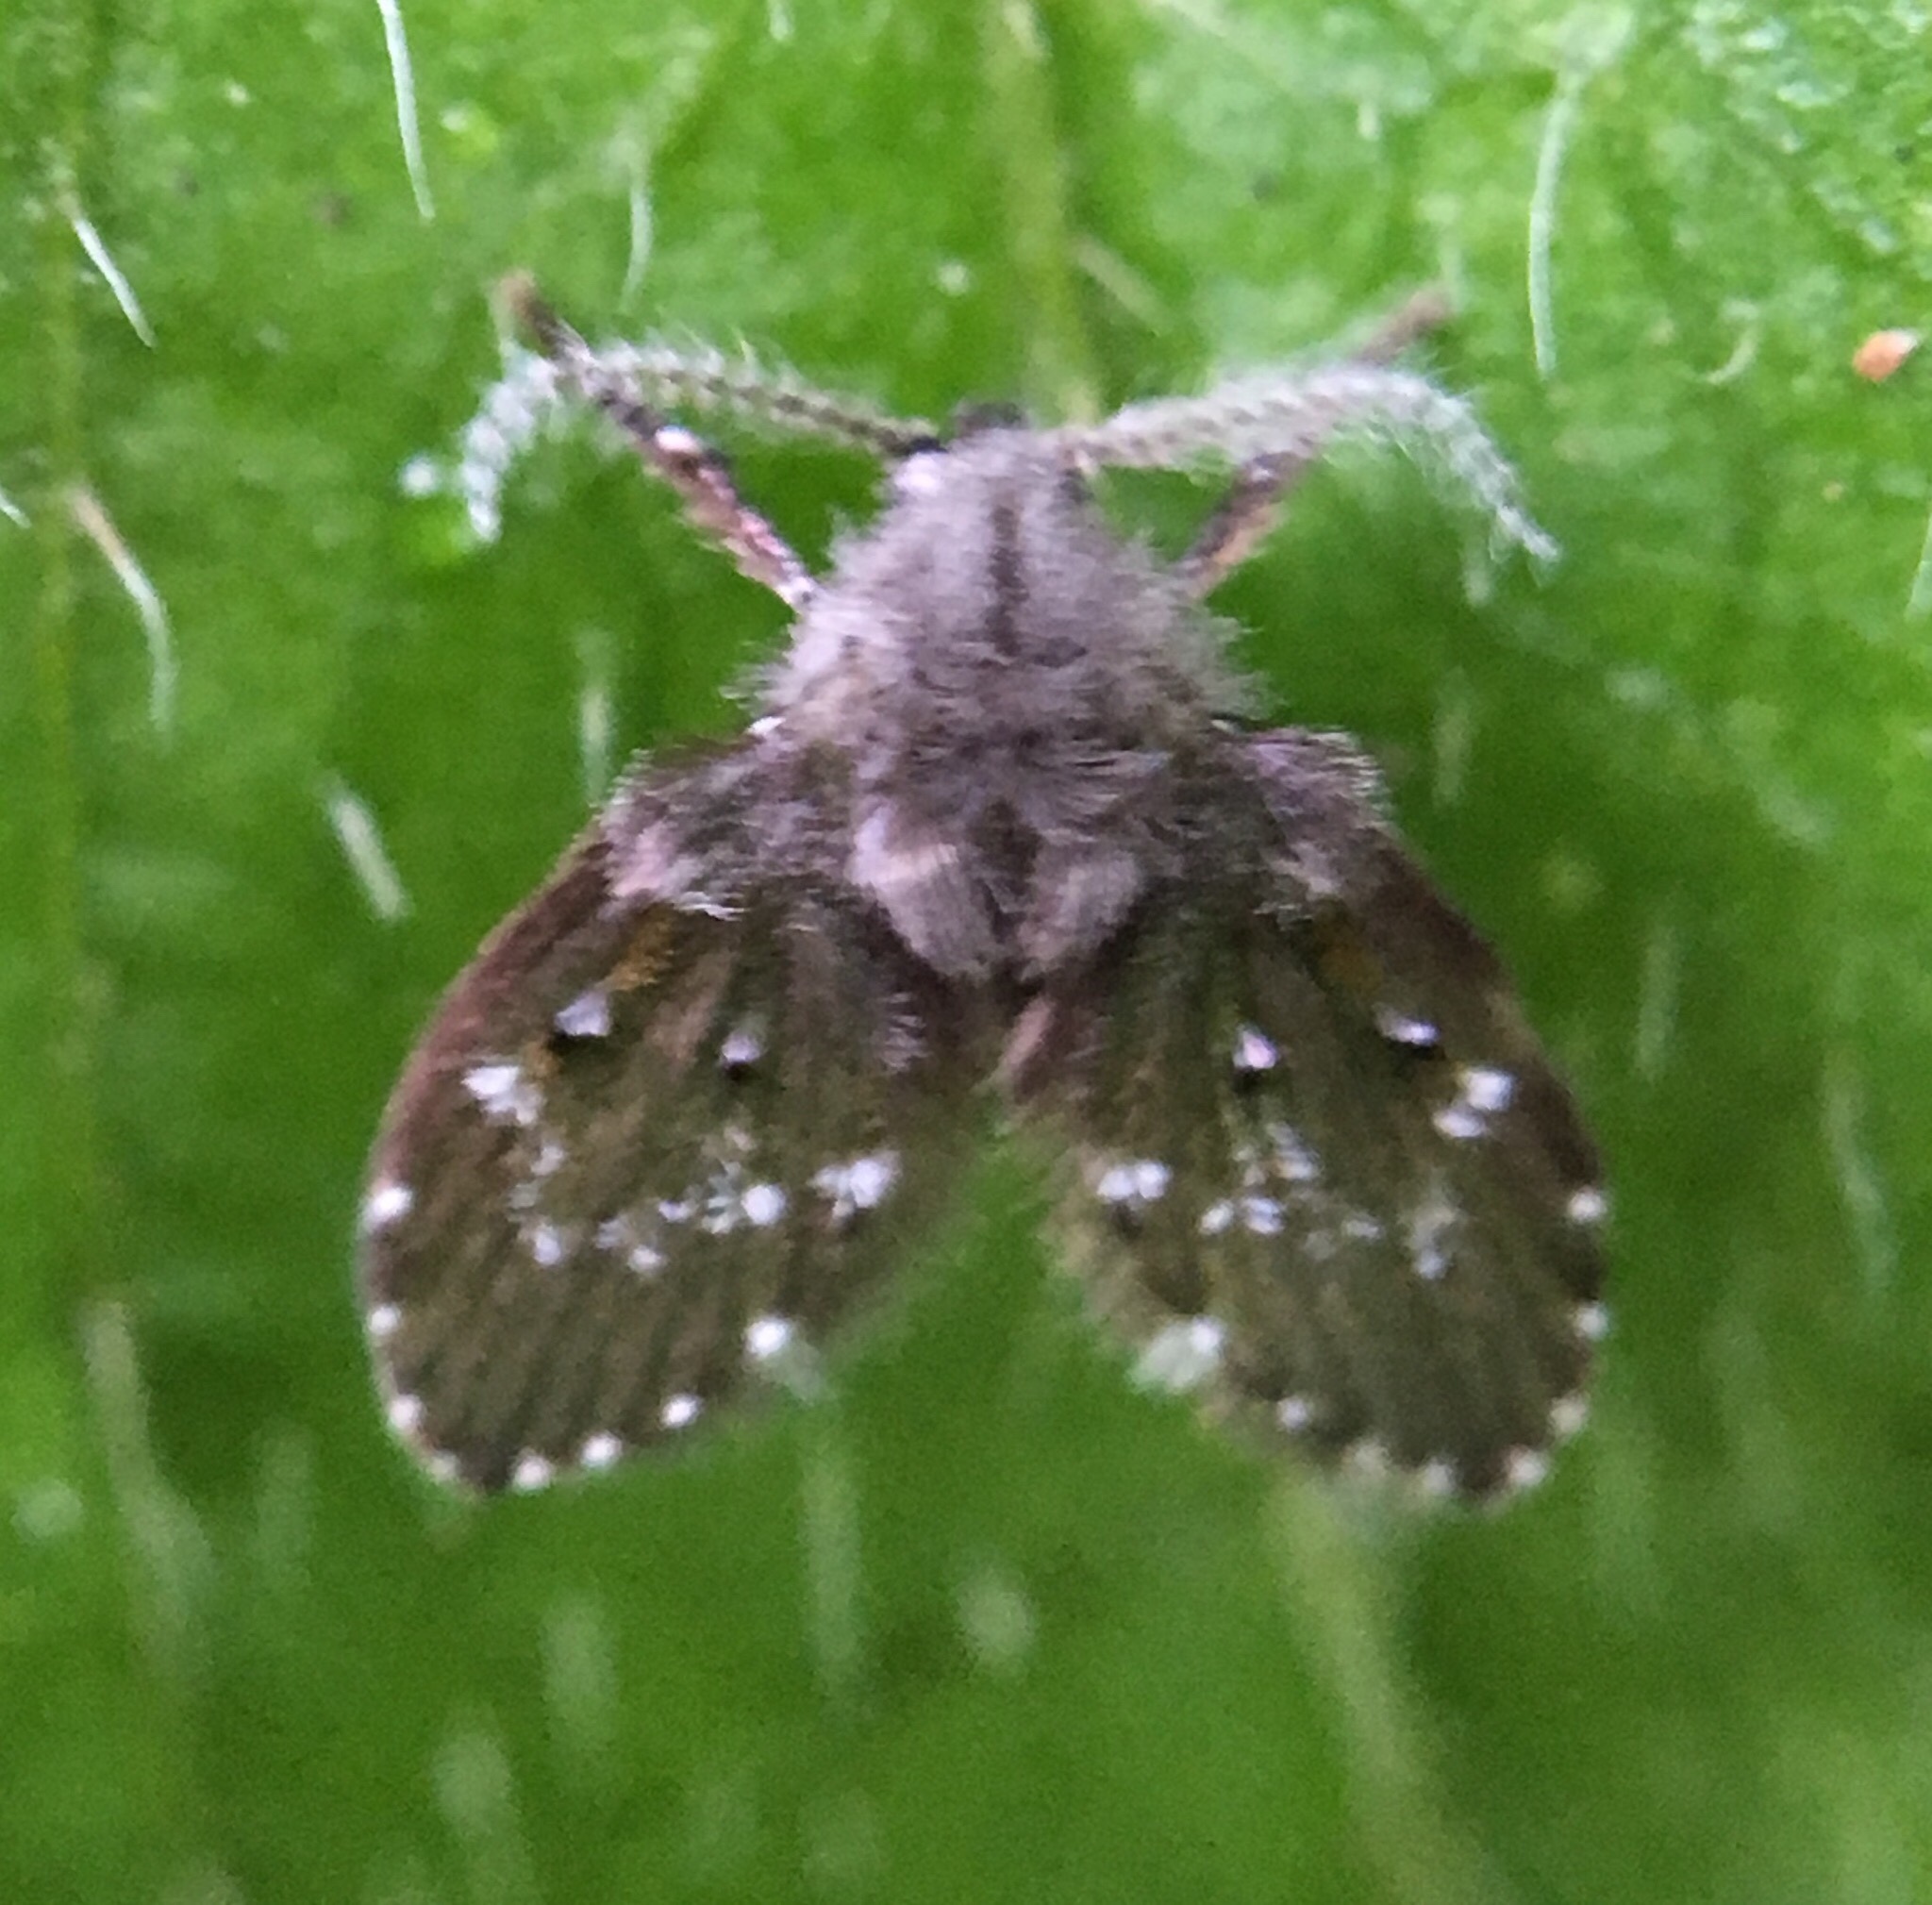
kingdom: Animalia
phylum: Arthropoda
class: Insecta
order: Diptera
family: Psychodidae
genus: Clogmia
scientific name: Clogmia albipunctatus
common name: White-spotted moth fly
